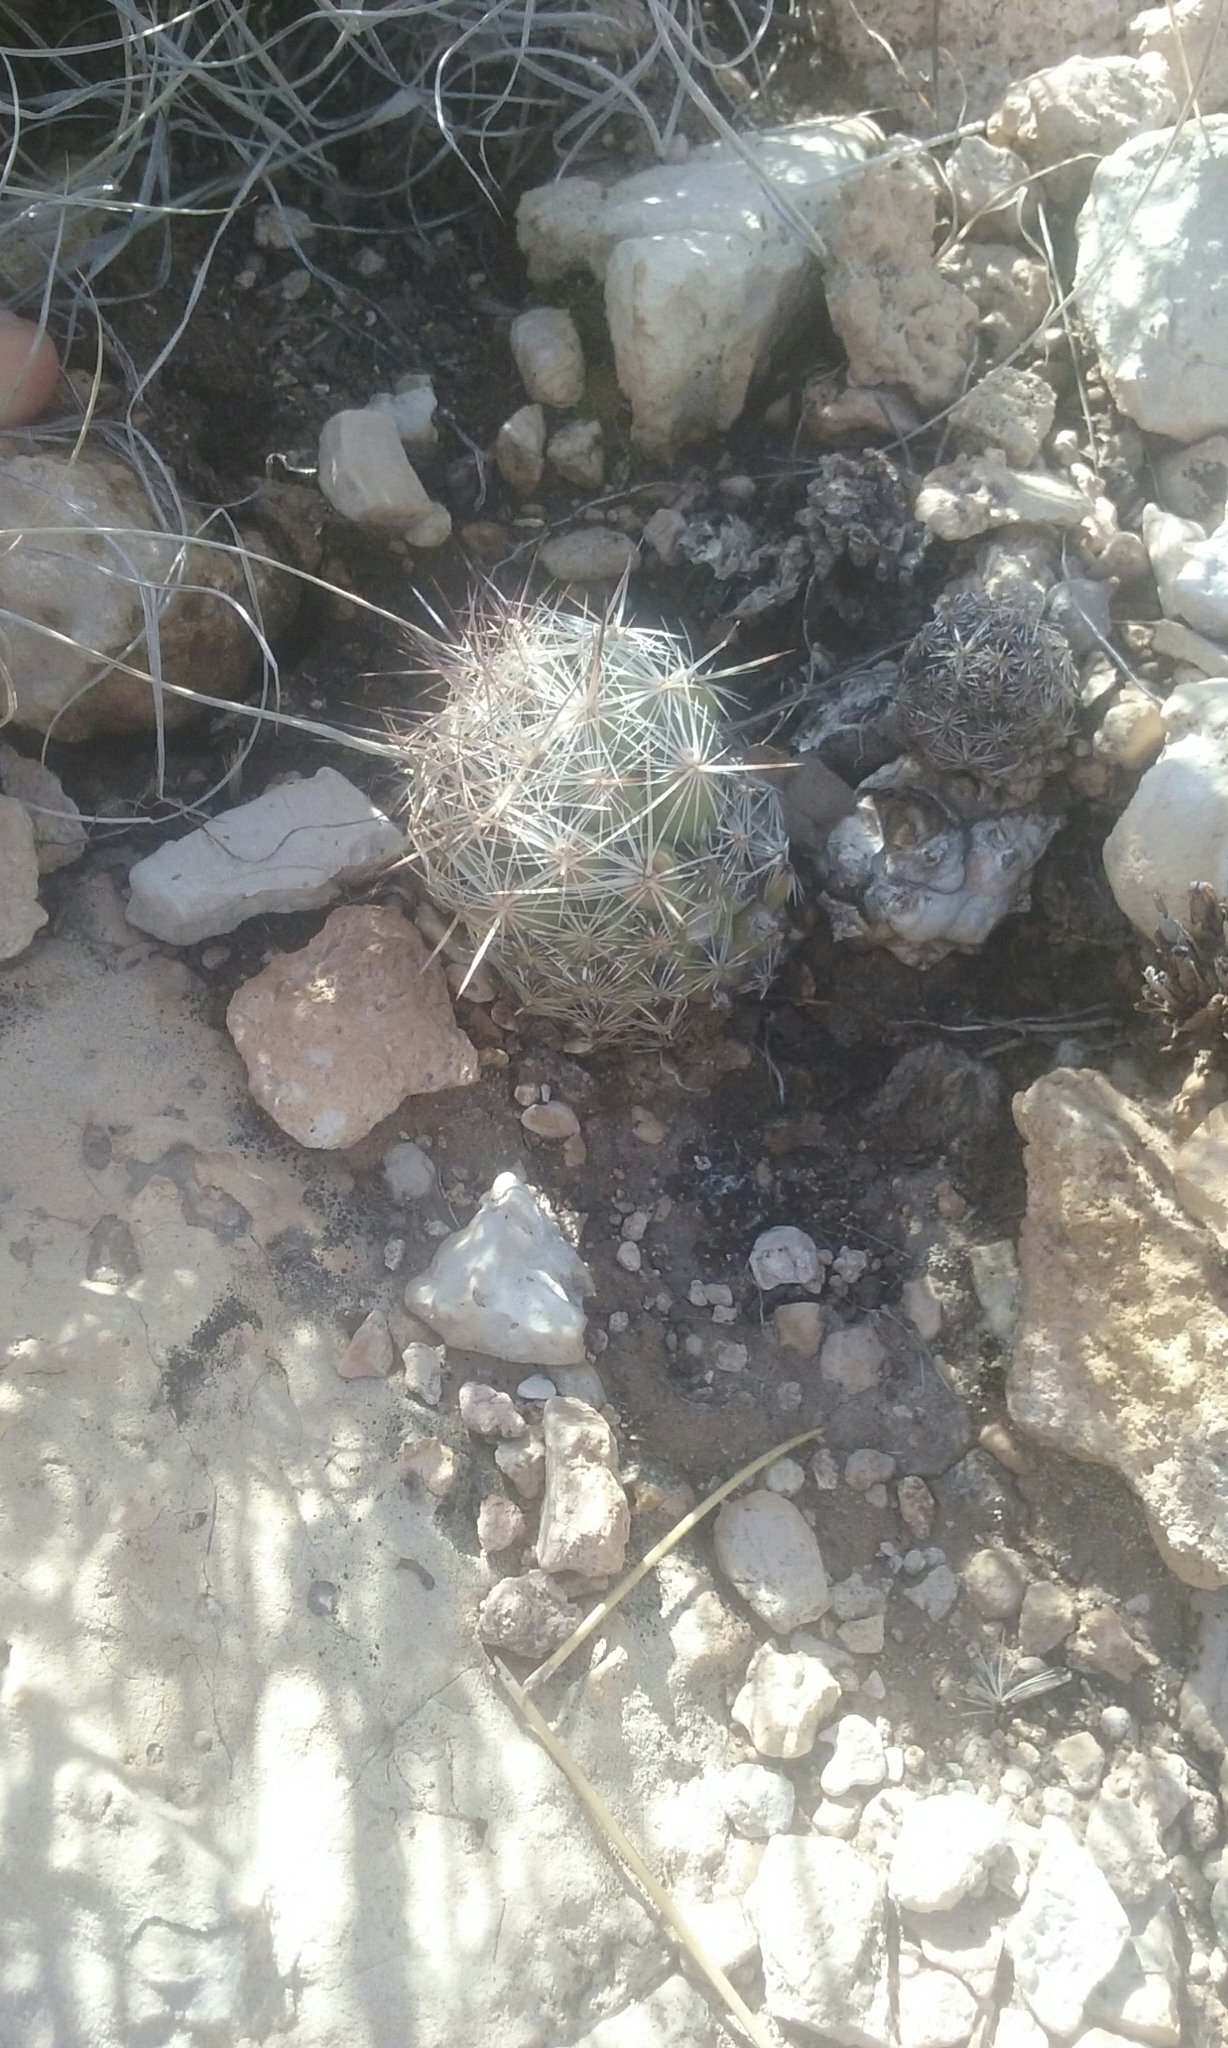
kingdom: Plantae
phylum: Tracheophyta
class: Magnoliopsida
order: Caryophyllales
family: Cactaceae
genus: Pelecyphora
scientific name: Pelecyphora tuberculosa
